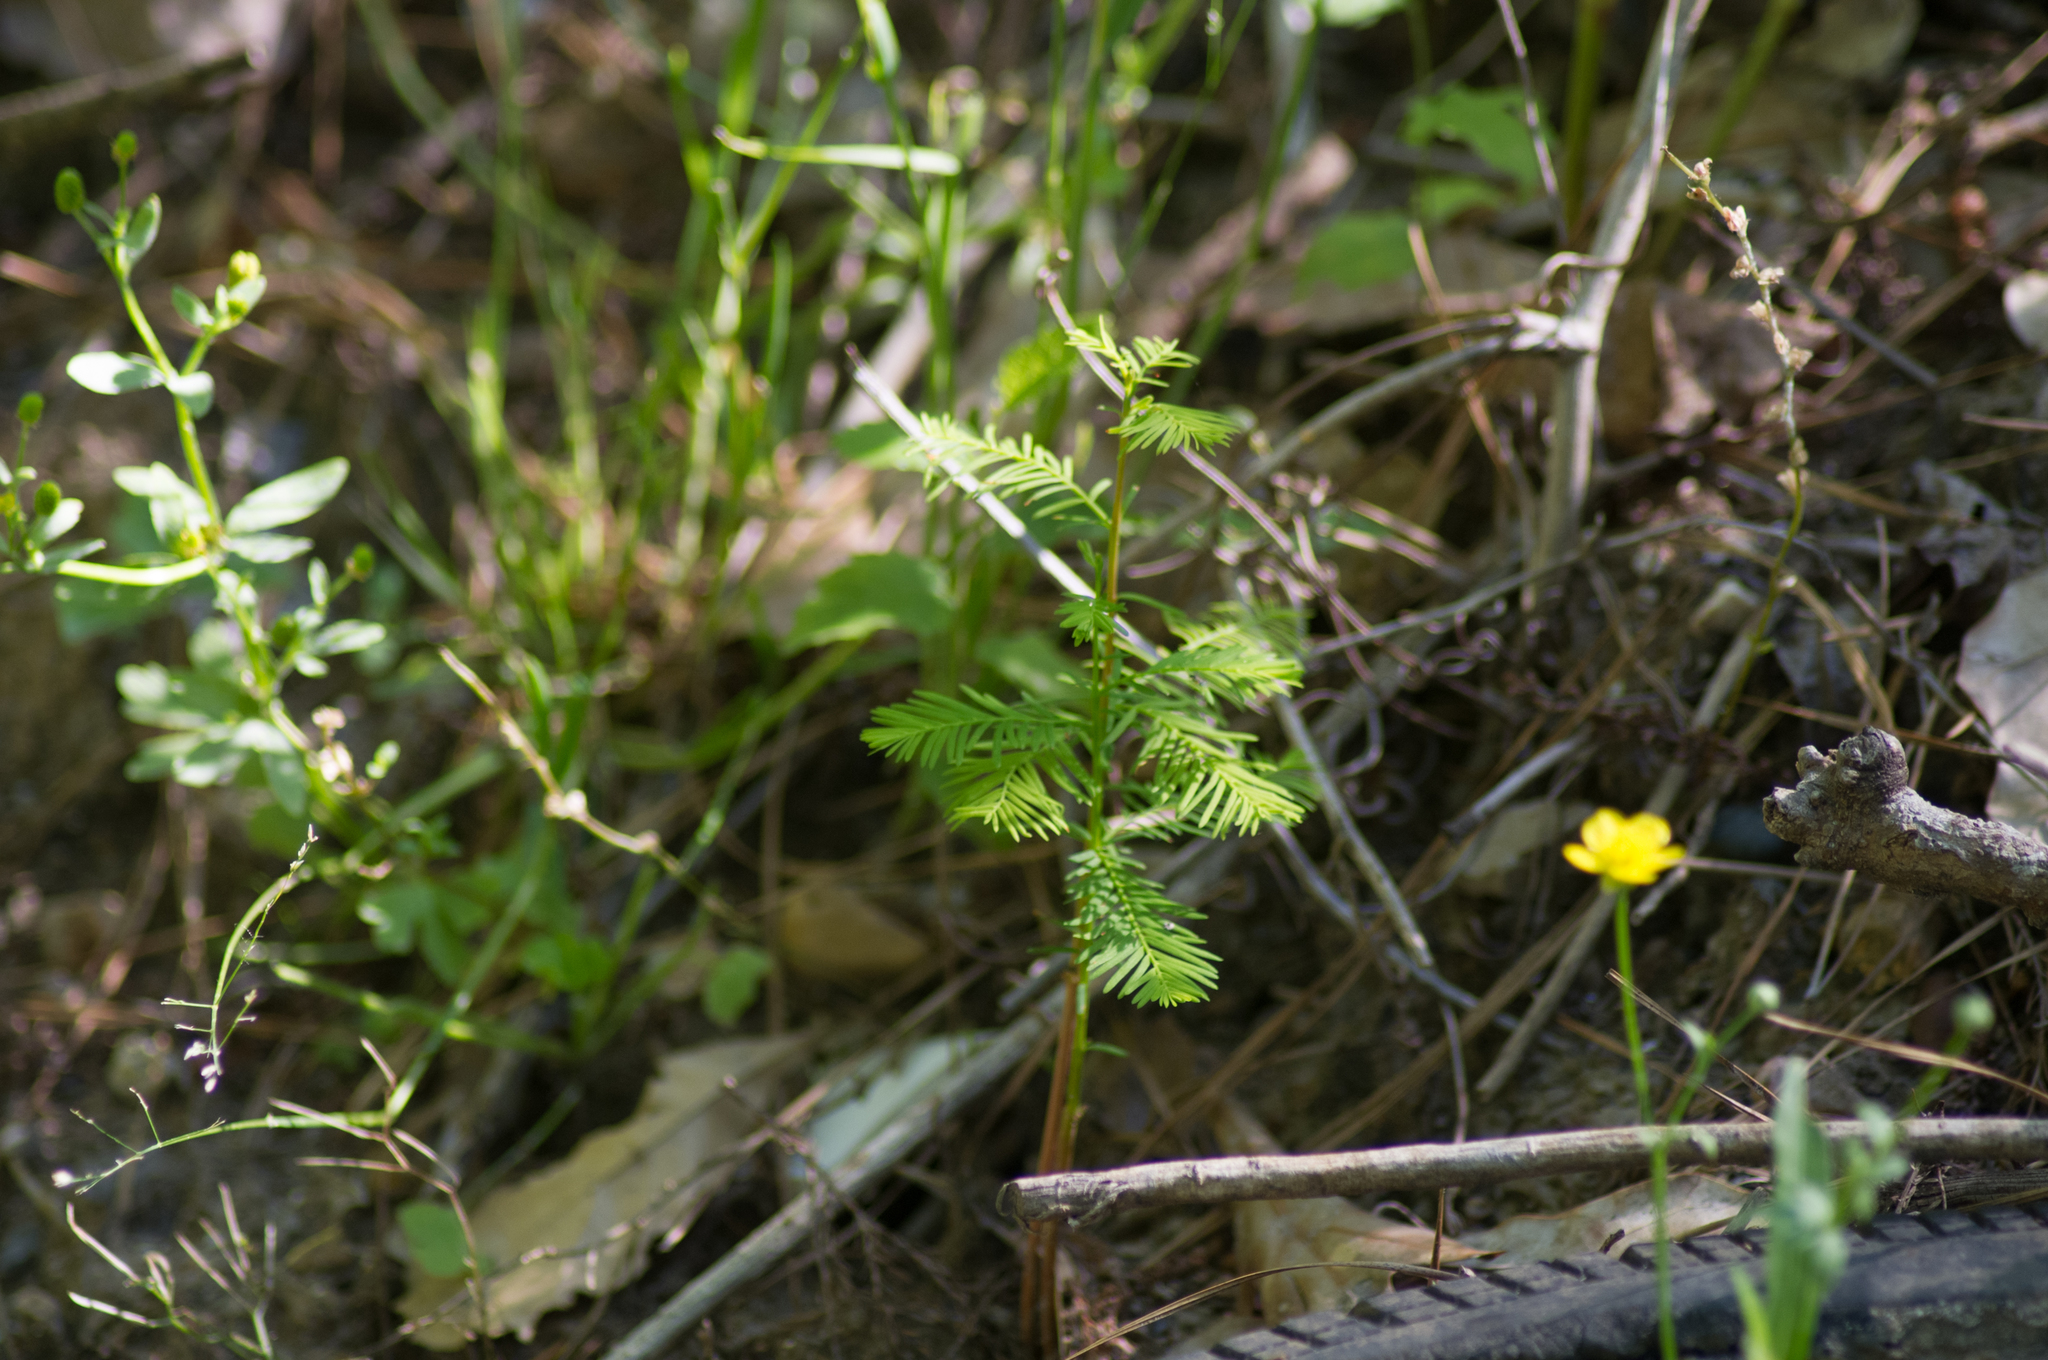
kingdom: Plantae
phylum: Tracheophyta
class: Pinopsida
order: Pinales
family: Cupressaceae
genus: Taxodium
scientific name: Taxodium distichum
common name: Bald cypress
